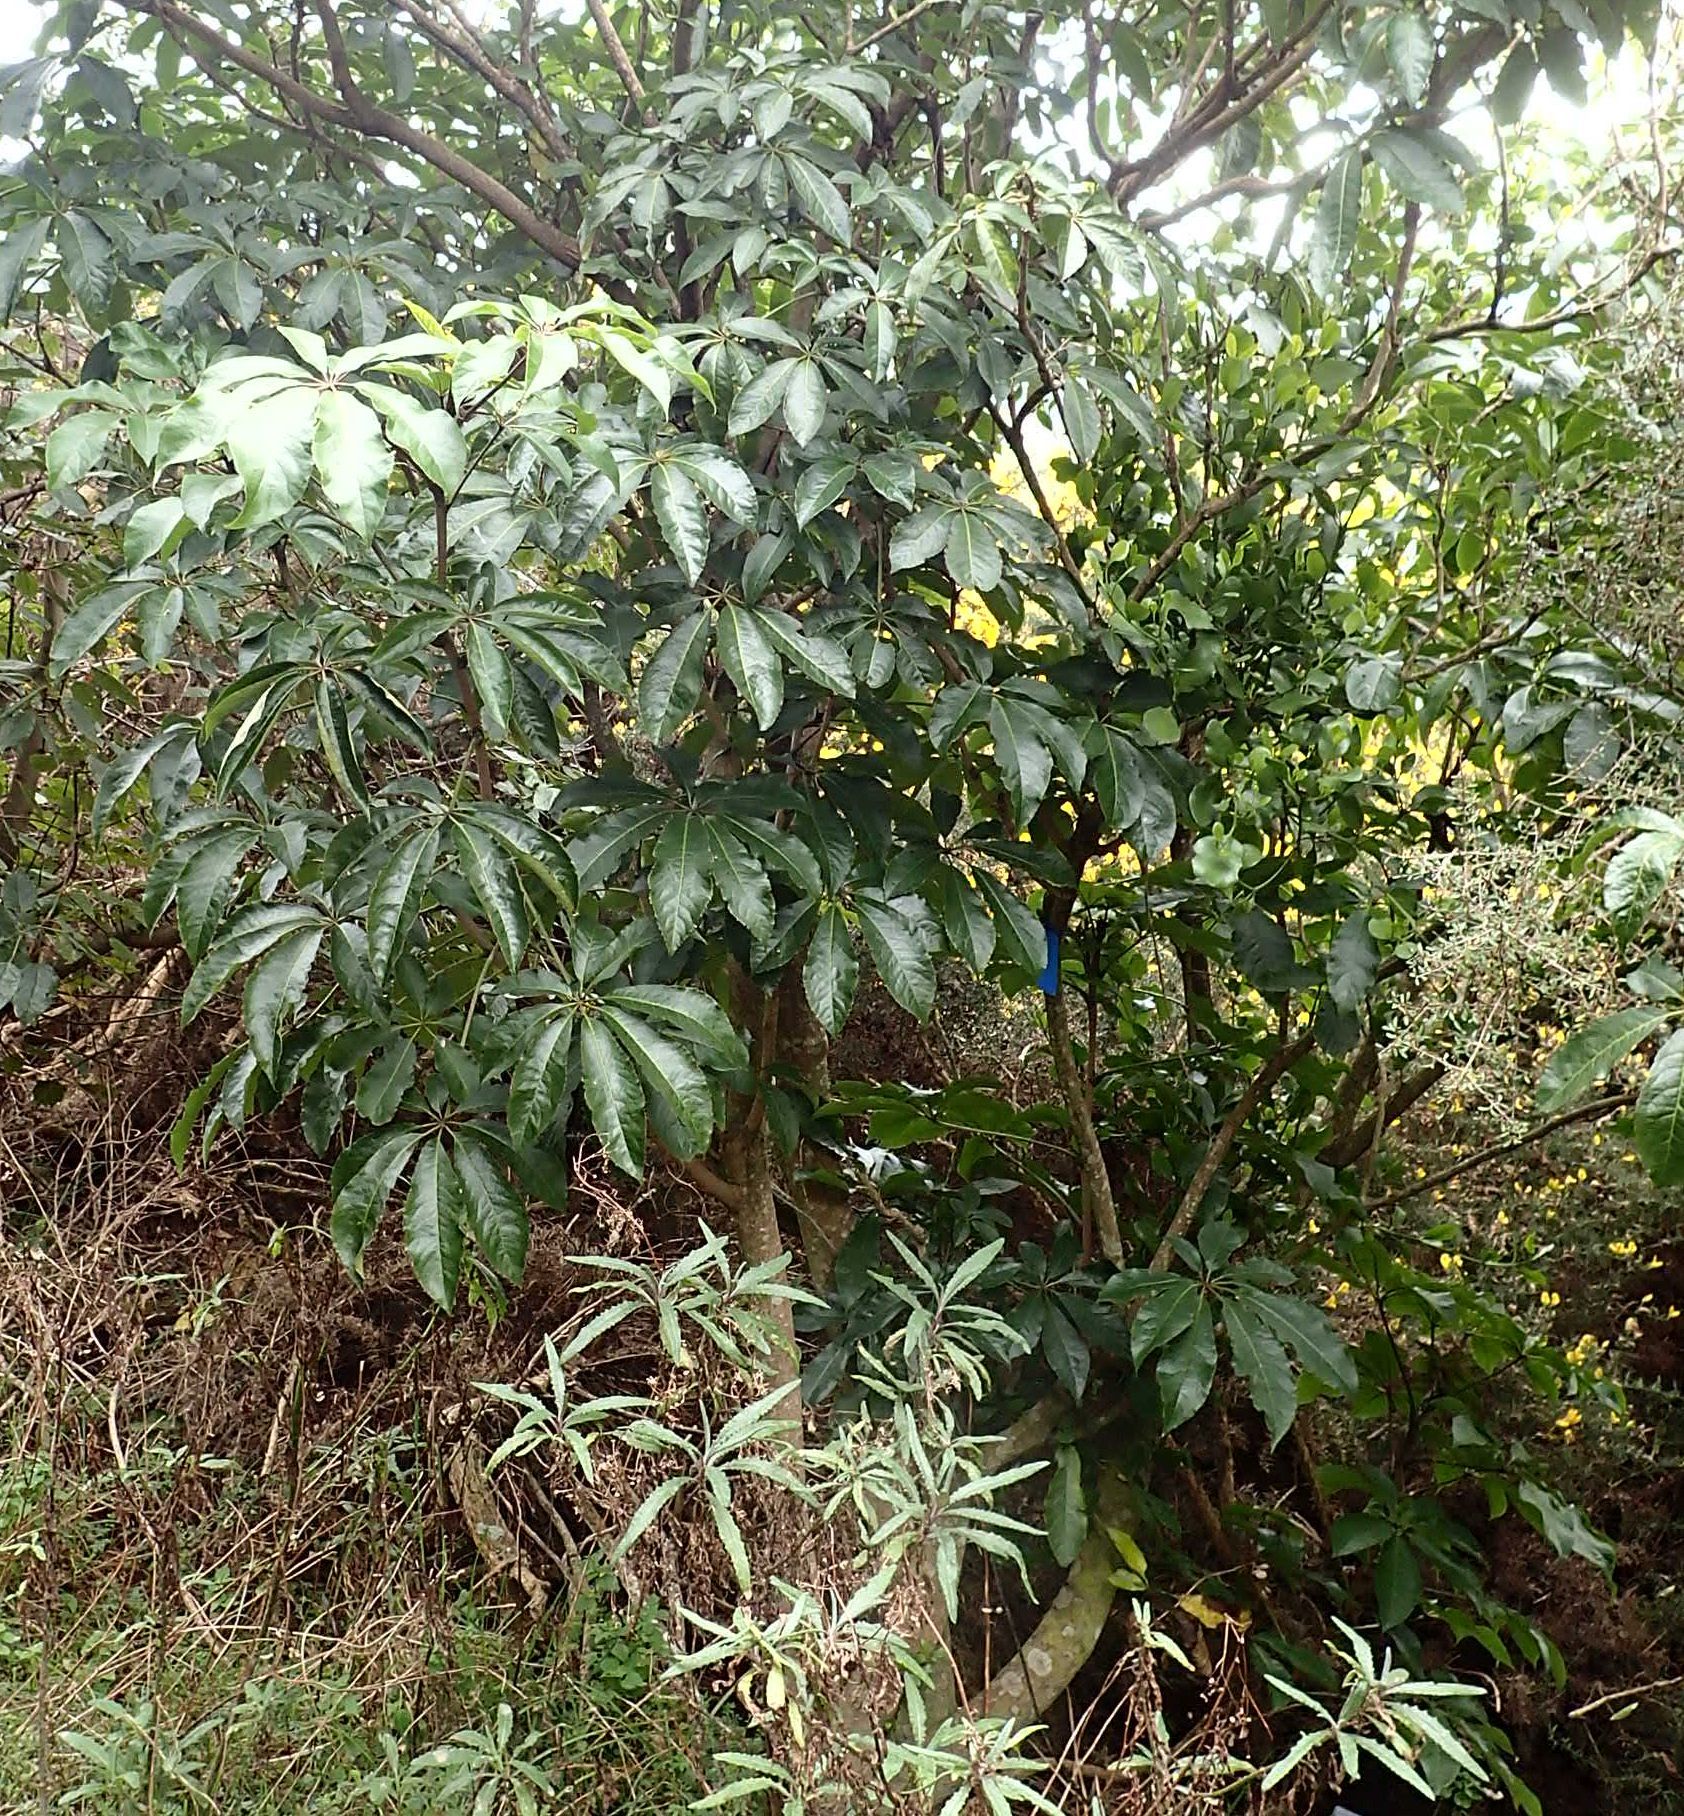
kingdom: Plantae
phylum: Tracheophyta
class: Magnoliopsida
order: Apiales
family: Araliaceae
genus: Schefflera
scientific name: Schefflera digitata
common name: Pate
